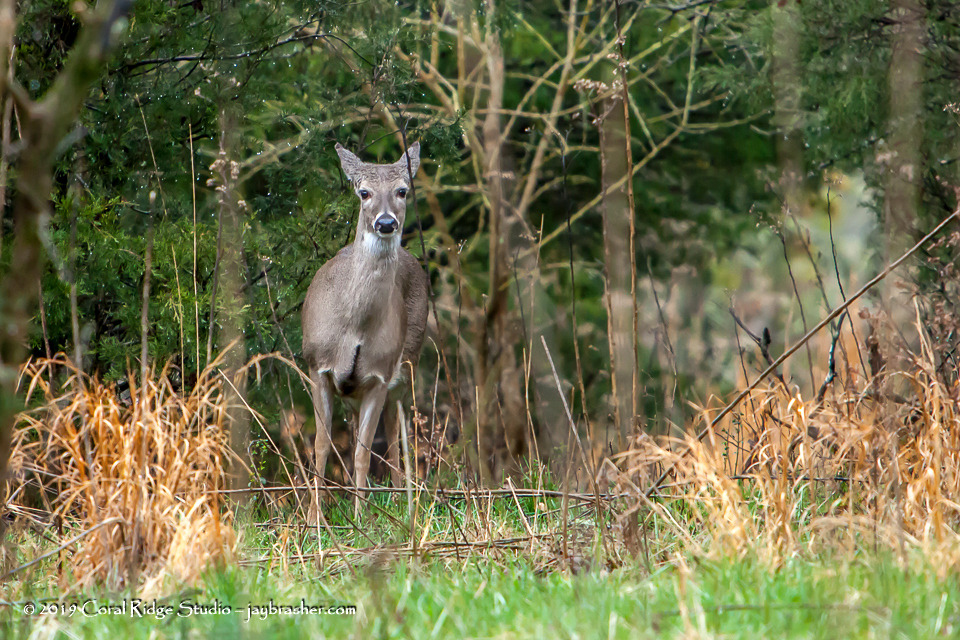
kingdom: Animalia
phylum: Chordata
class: Mammalia
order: Artiodactyla
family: Cervidae
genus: Odocoileus
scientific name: Odocoileus virginianus
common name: White-tailed deer
